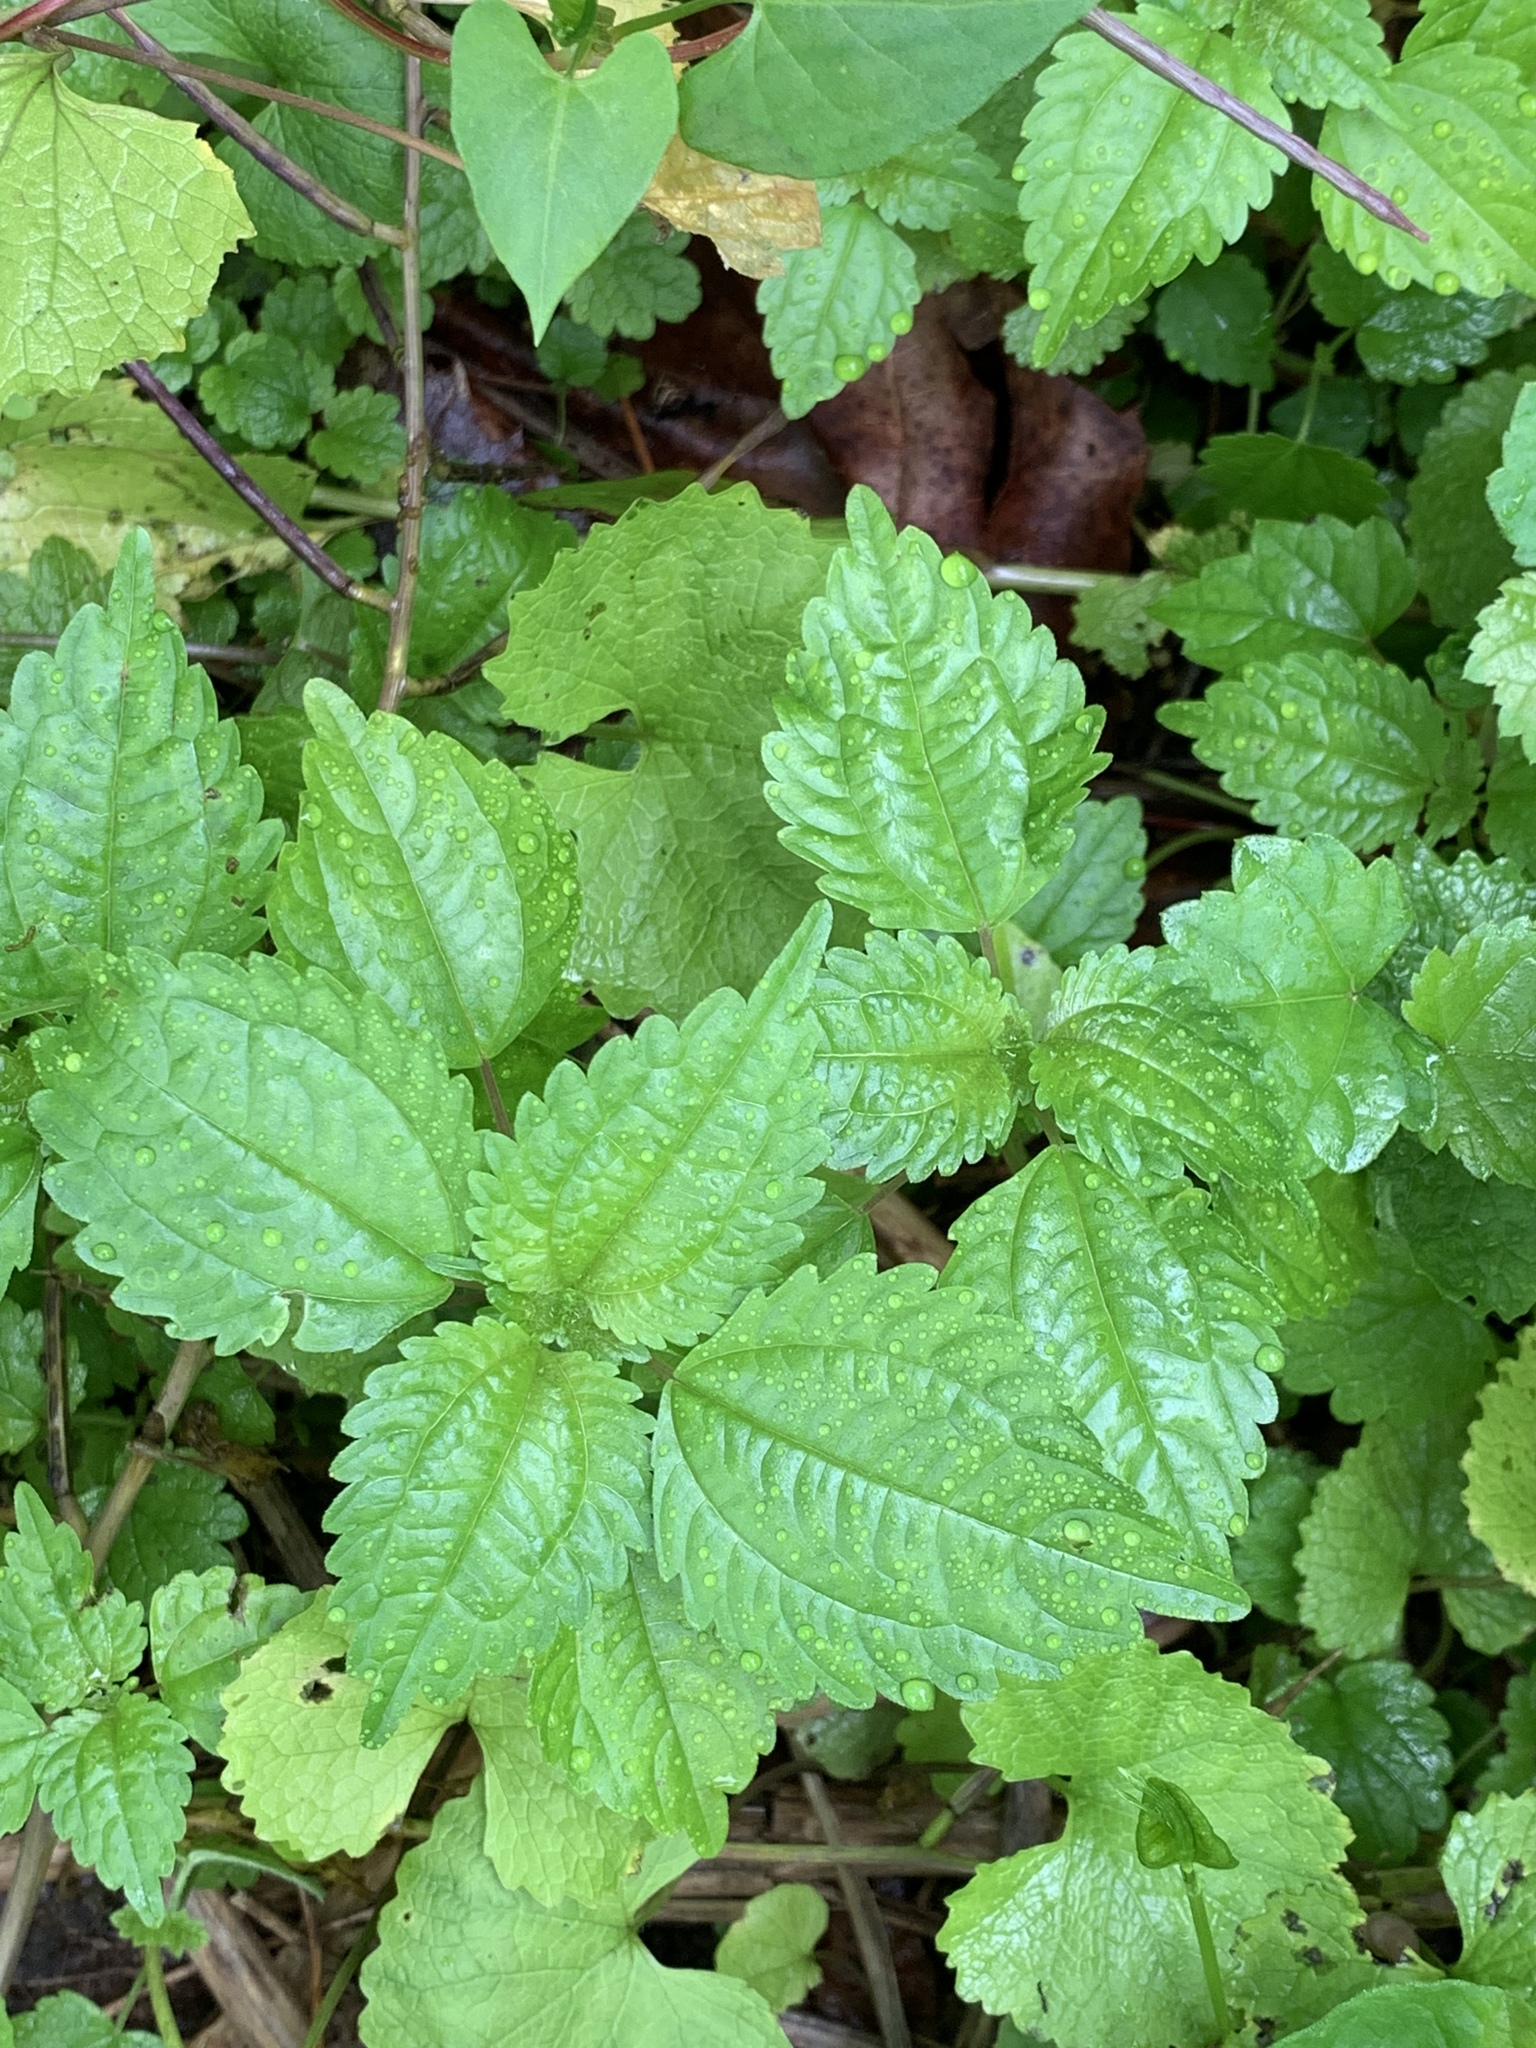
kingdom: Plantae
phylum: Tracheophyta
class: Magnoliopsida
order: Rosales
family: Urticaceae
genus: Pilea
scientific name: Pilea pumila
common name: Clearweed
